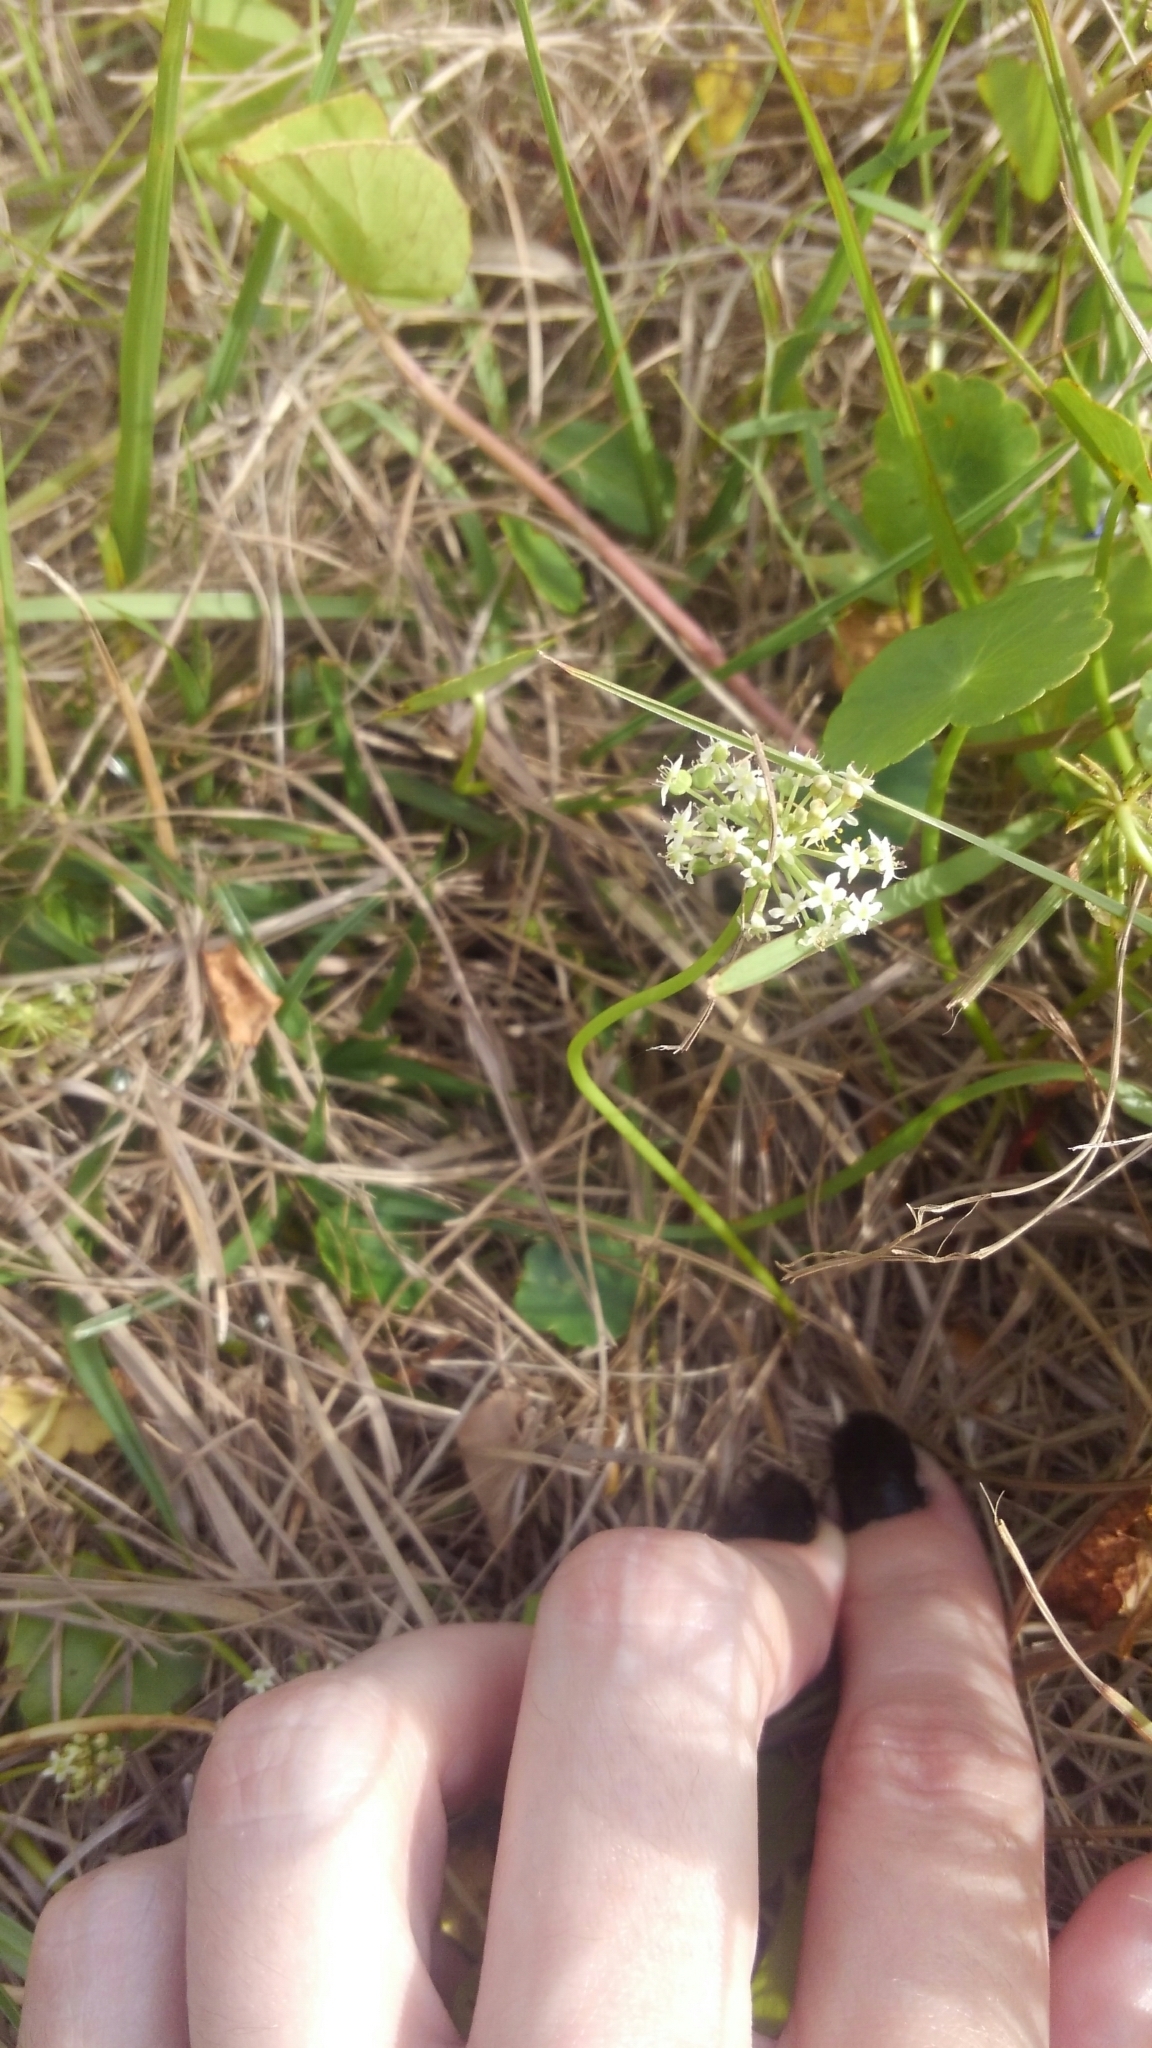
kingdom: Plantae
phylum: Tracheophyta
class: Magnoliopsida
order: Apiales
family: Araliaceae
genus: Hydrocotyle
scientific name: Hydrocotyle umbellata
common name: Water pennywort
